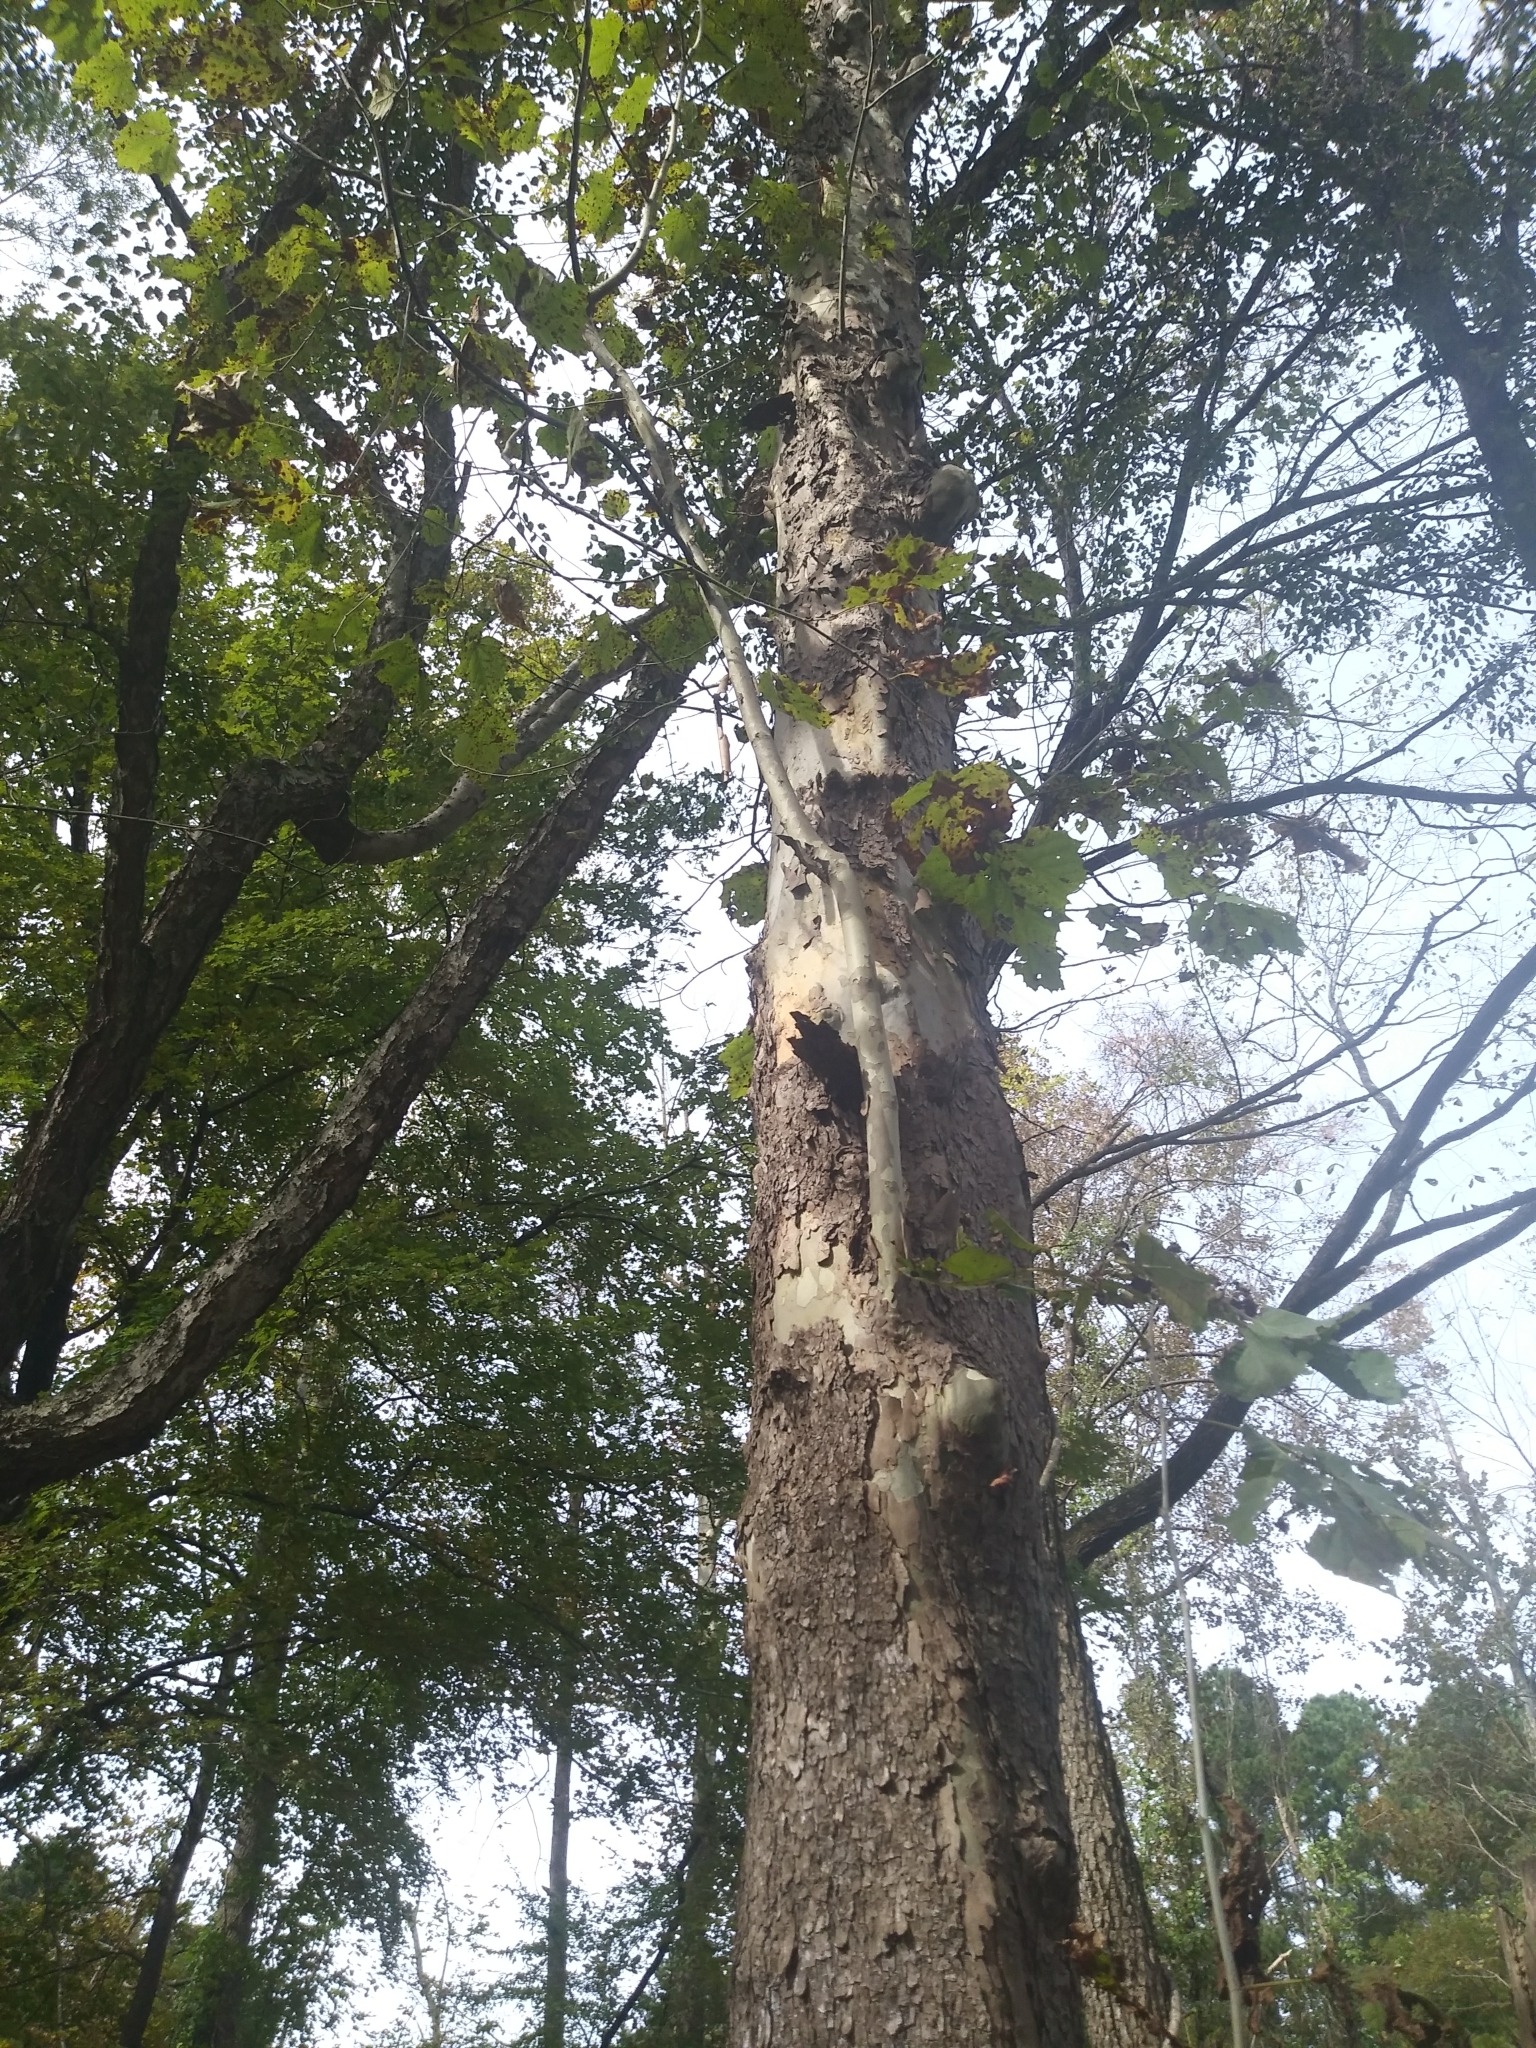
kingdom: Plantae
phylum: Tracheophyta
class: Magnoliopsida
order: Proteales
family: Platanaceae
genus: Platanus
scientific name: Platanus occidentalis
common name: American sycamore
